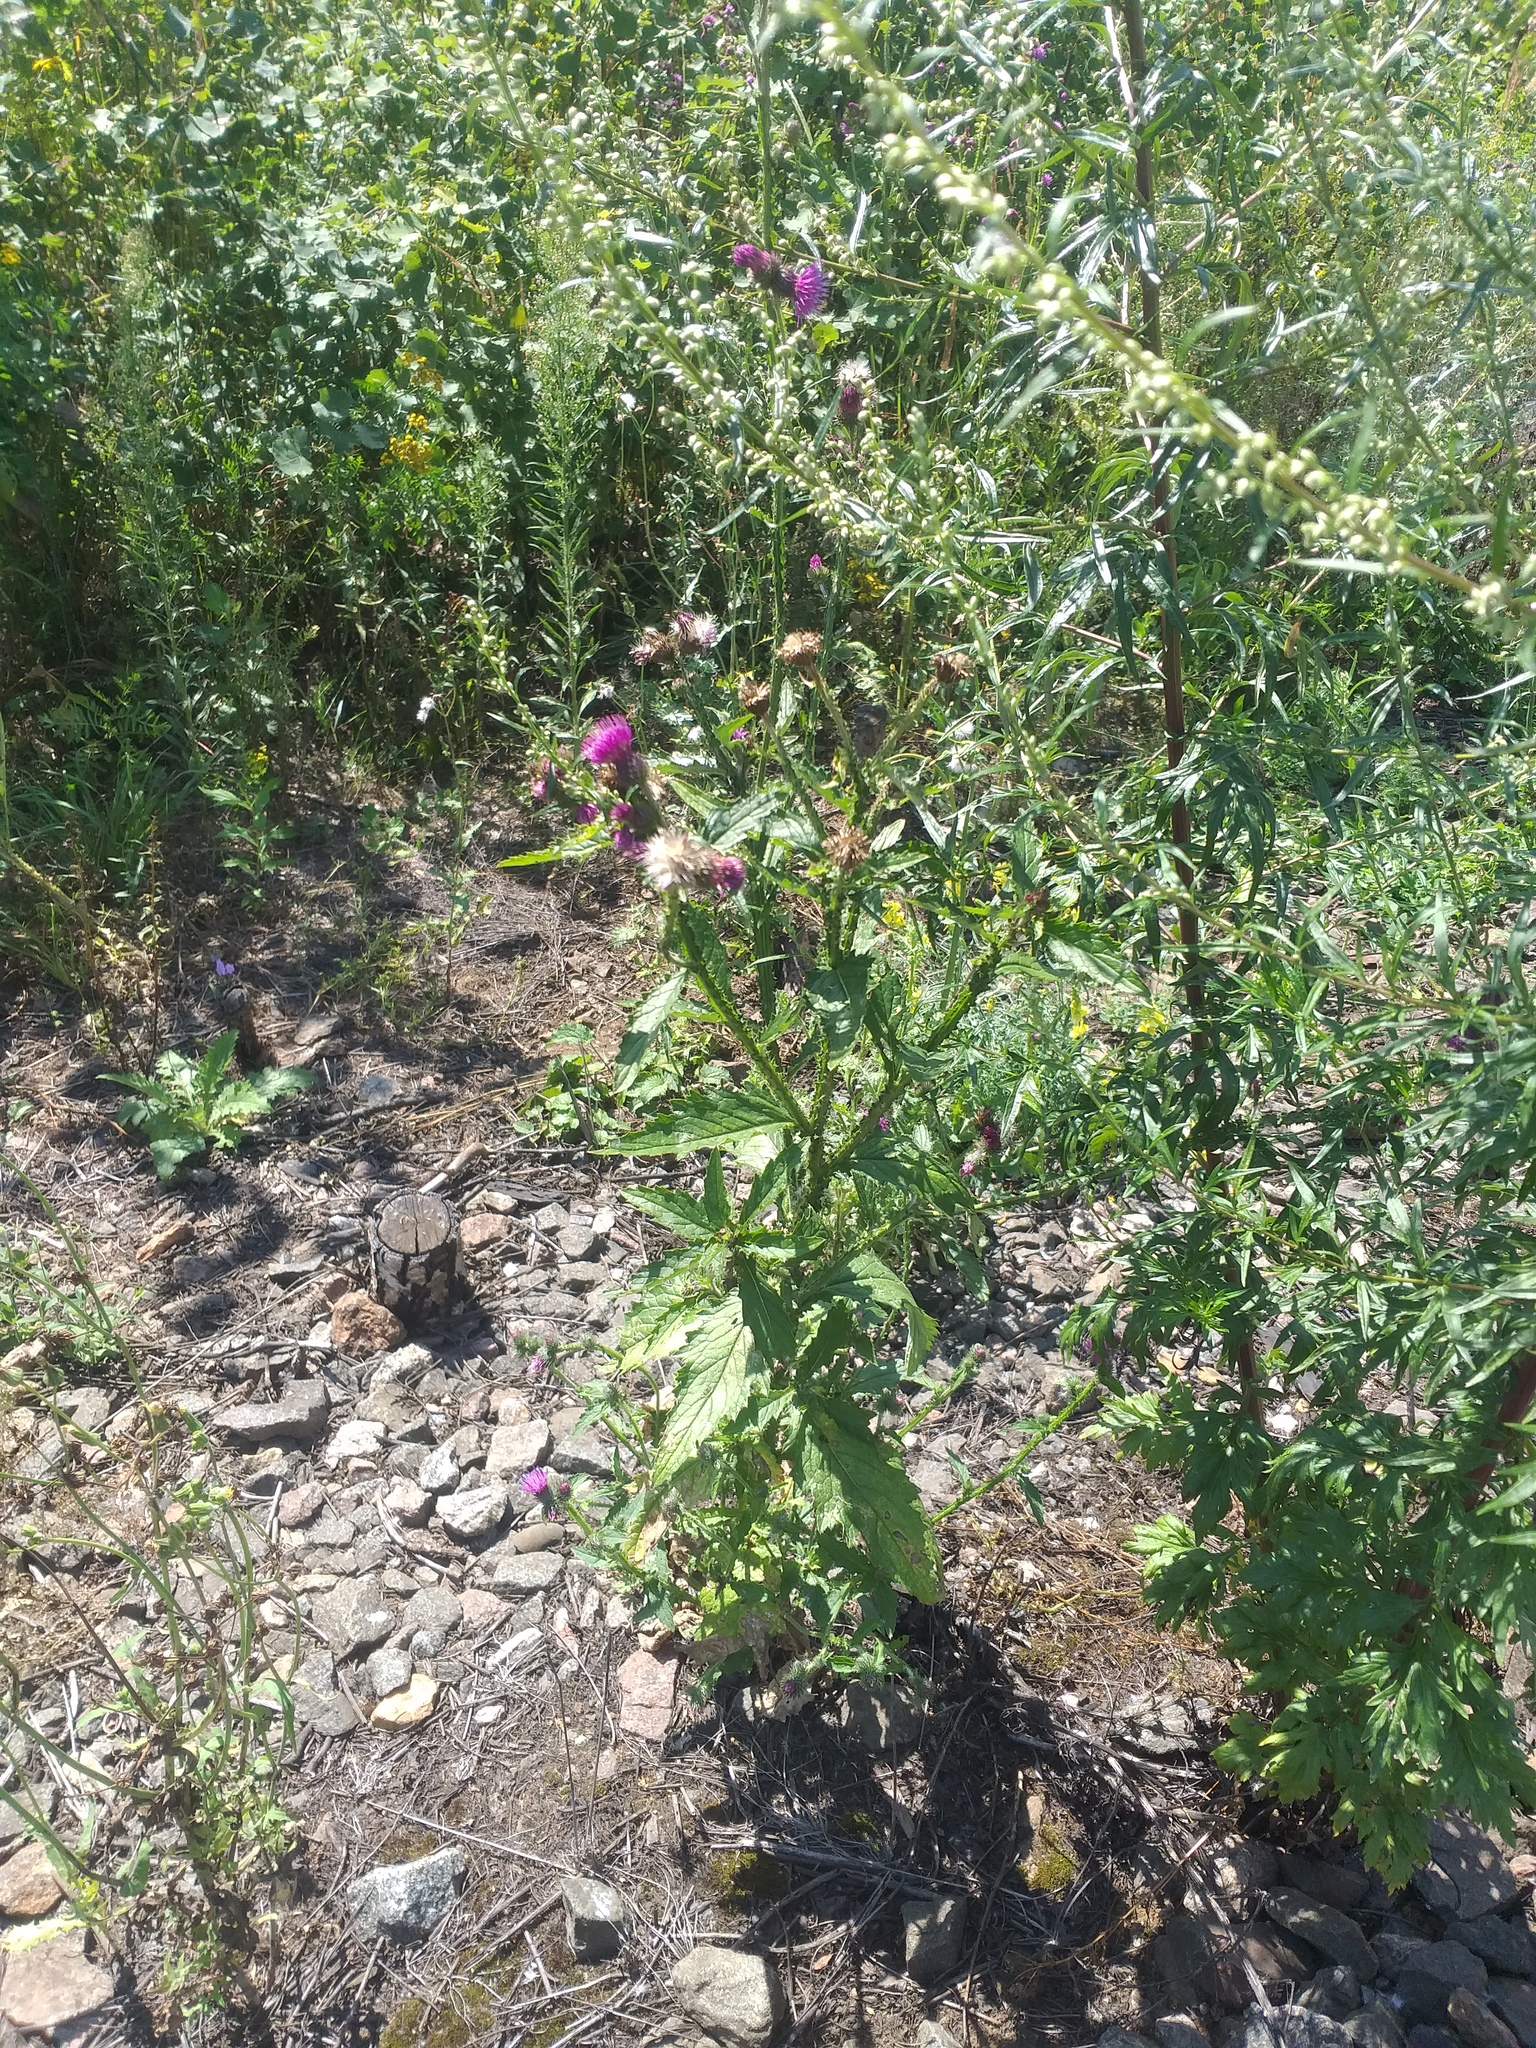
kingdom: Plantae
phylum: Tracheophyta
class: Magnoliopsida
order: Asterales
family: Asteraceae
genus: Carduus
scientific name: Carduus crispus
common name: Welted thistle
